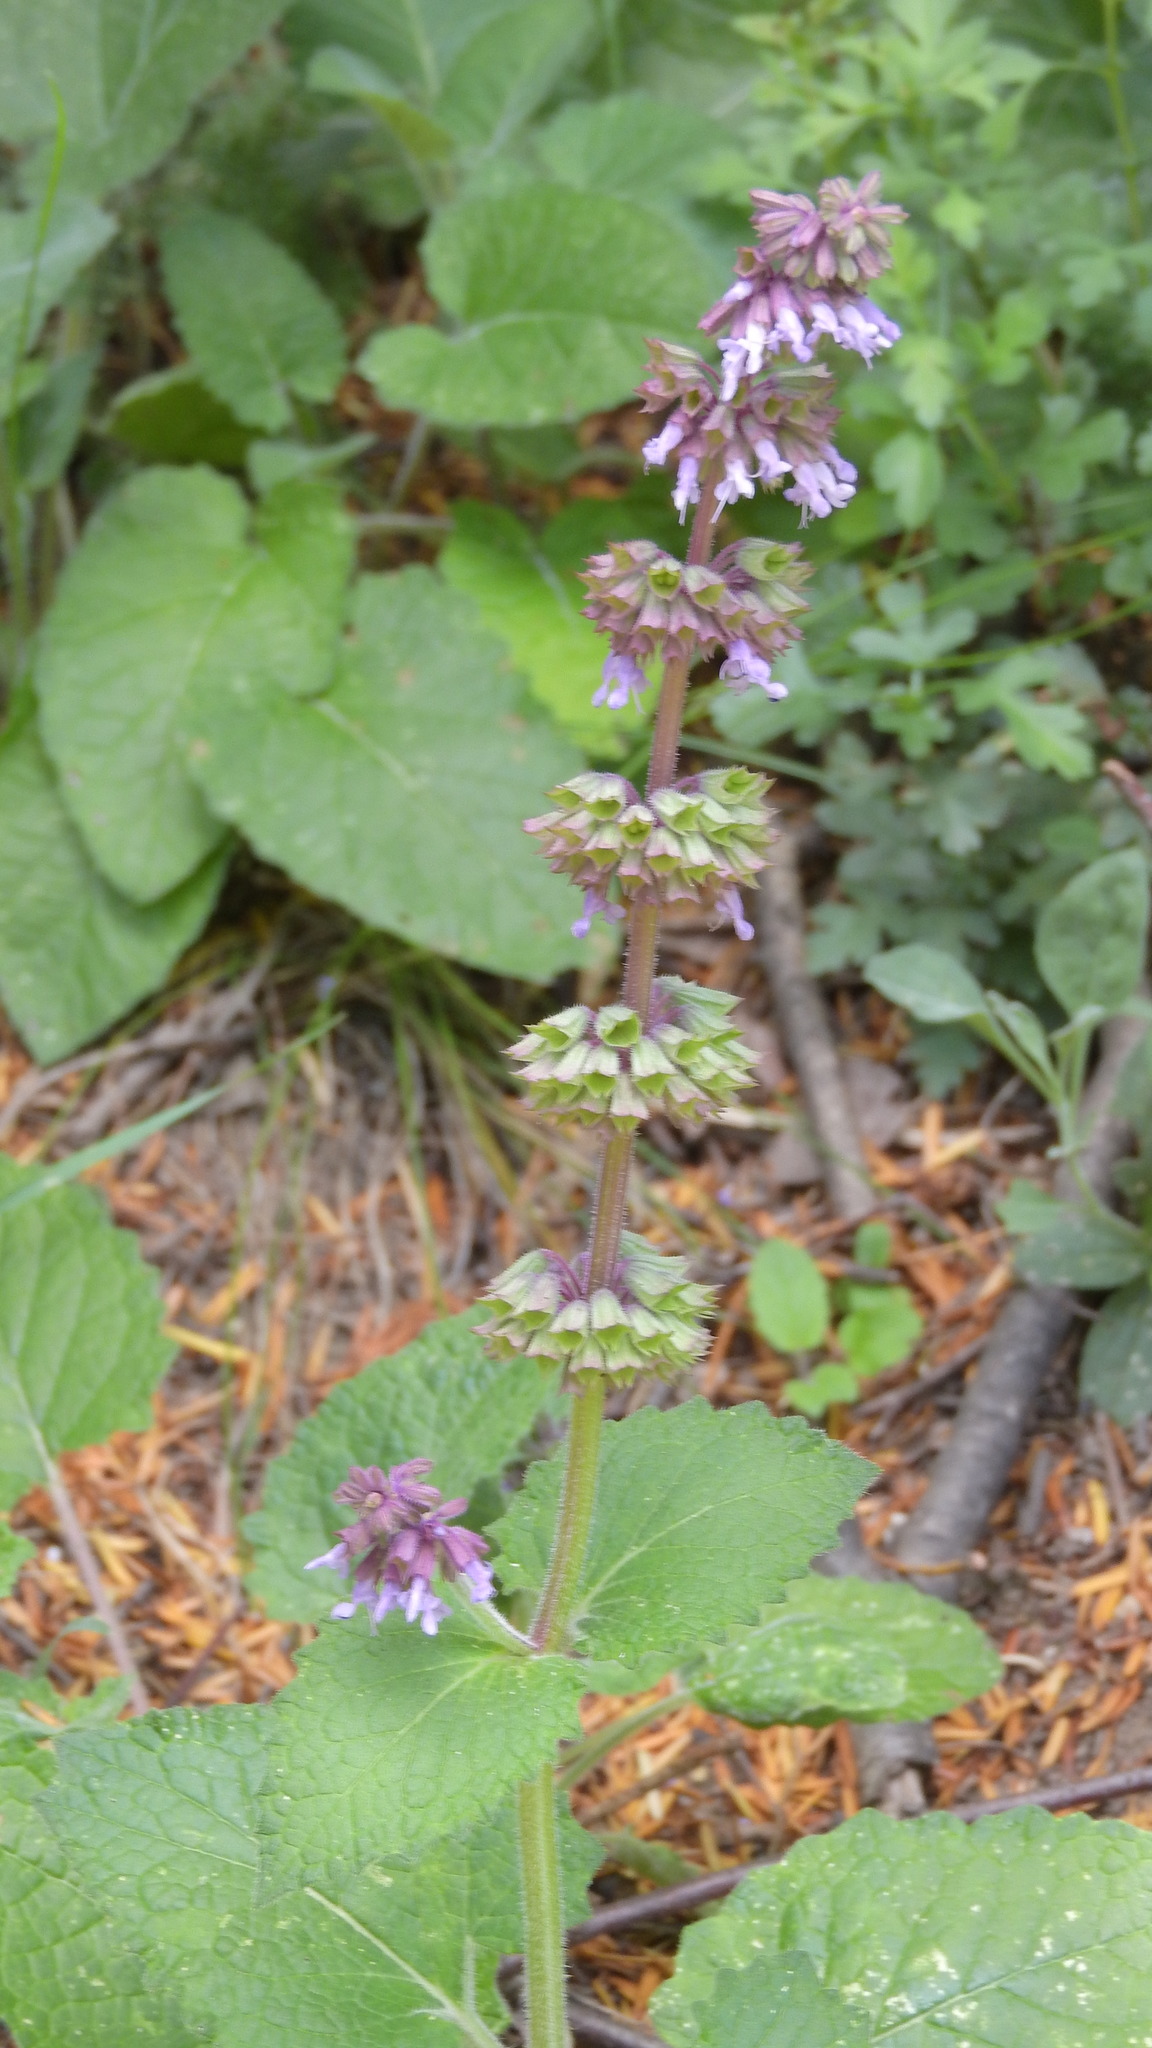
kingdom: Plantae
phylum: Tracheophyta
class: Magnoliopsida
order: Lamiales
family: Lamiaceae
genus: Salvia
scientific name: Salvia verticillata
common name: Whorled clary
